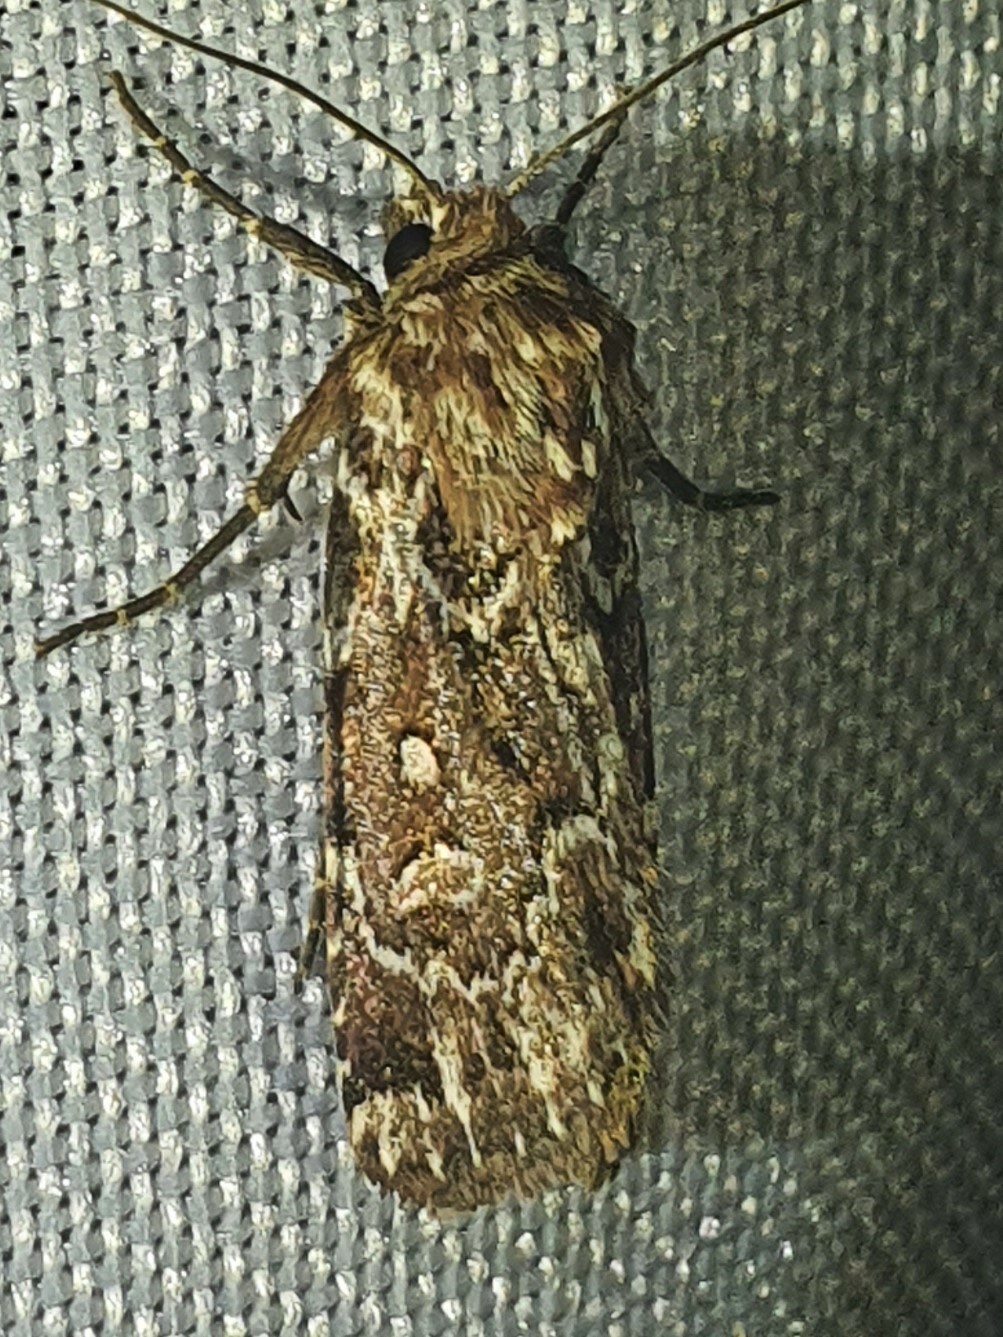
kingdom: Animalia
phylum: Arthropoda
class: Insecta
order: Lepidoptera
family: Noctuidae
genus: Lycophotia
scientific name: Lycophotia porphyrea
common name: True lover's knot
